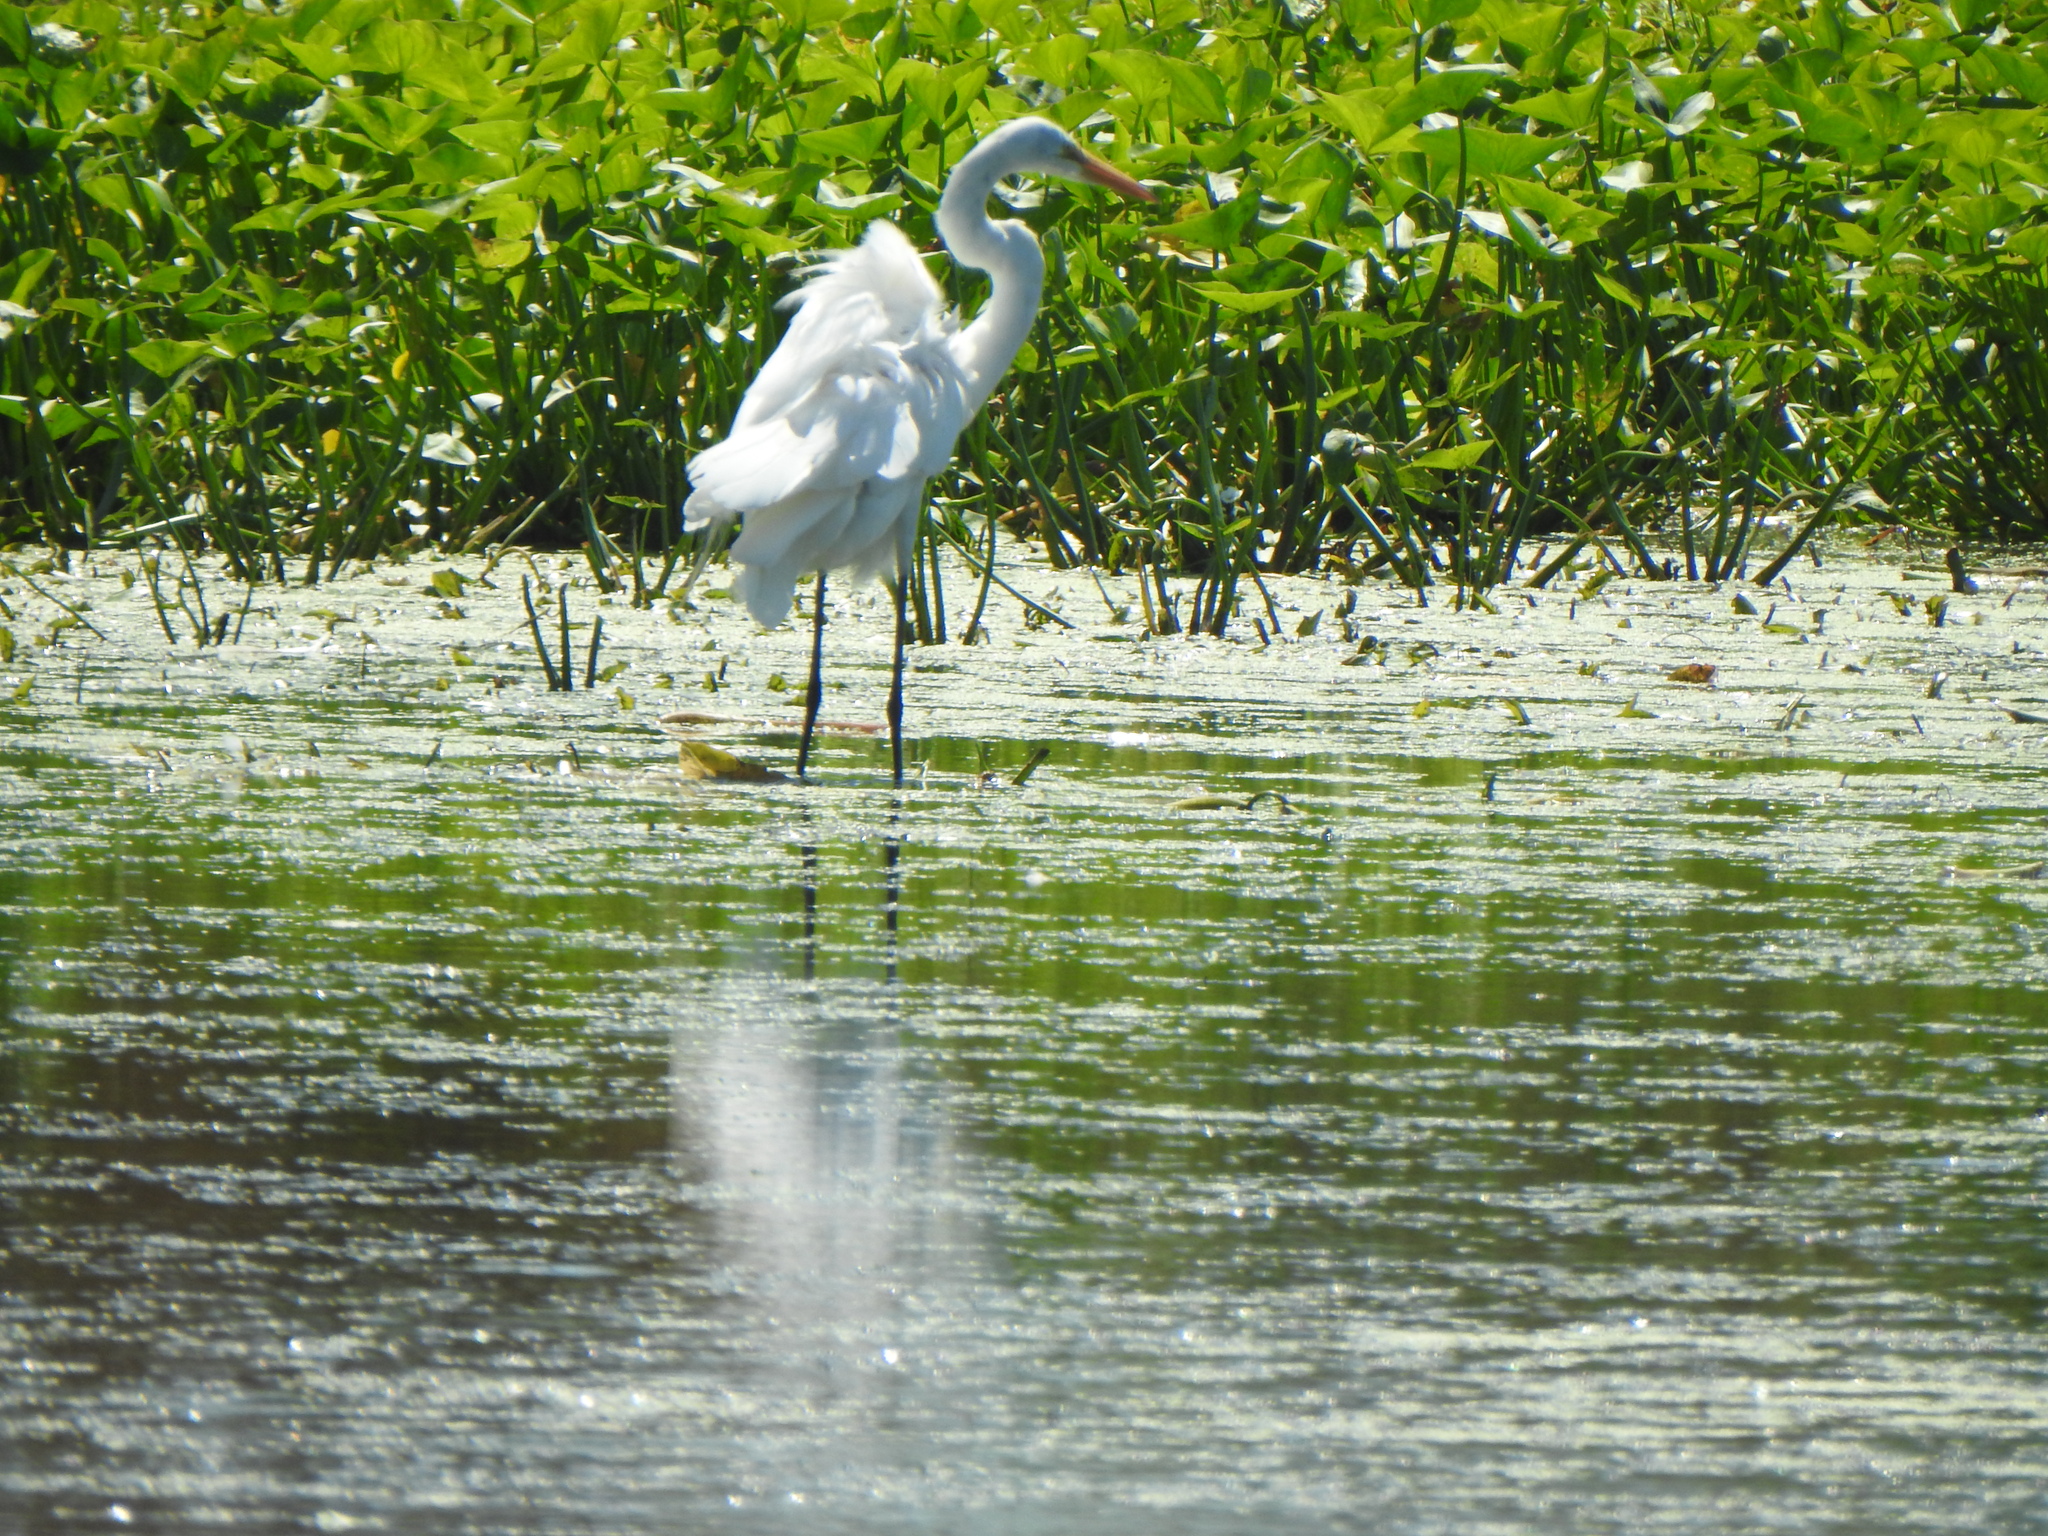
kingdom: Animalia
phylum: Chordata
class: Aves
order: Pelecaniformes
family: Ardeidae
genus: Ardea
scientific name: Ardea alba
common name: Great egret
